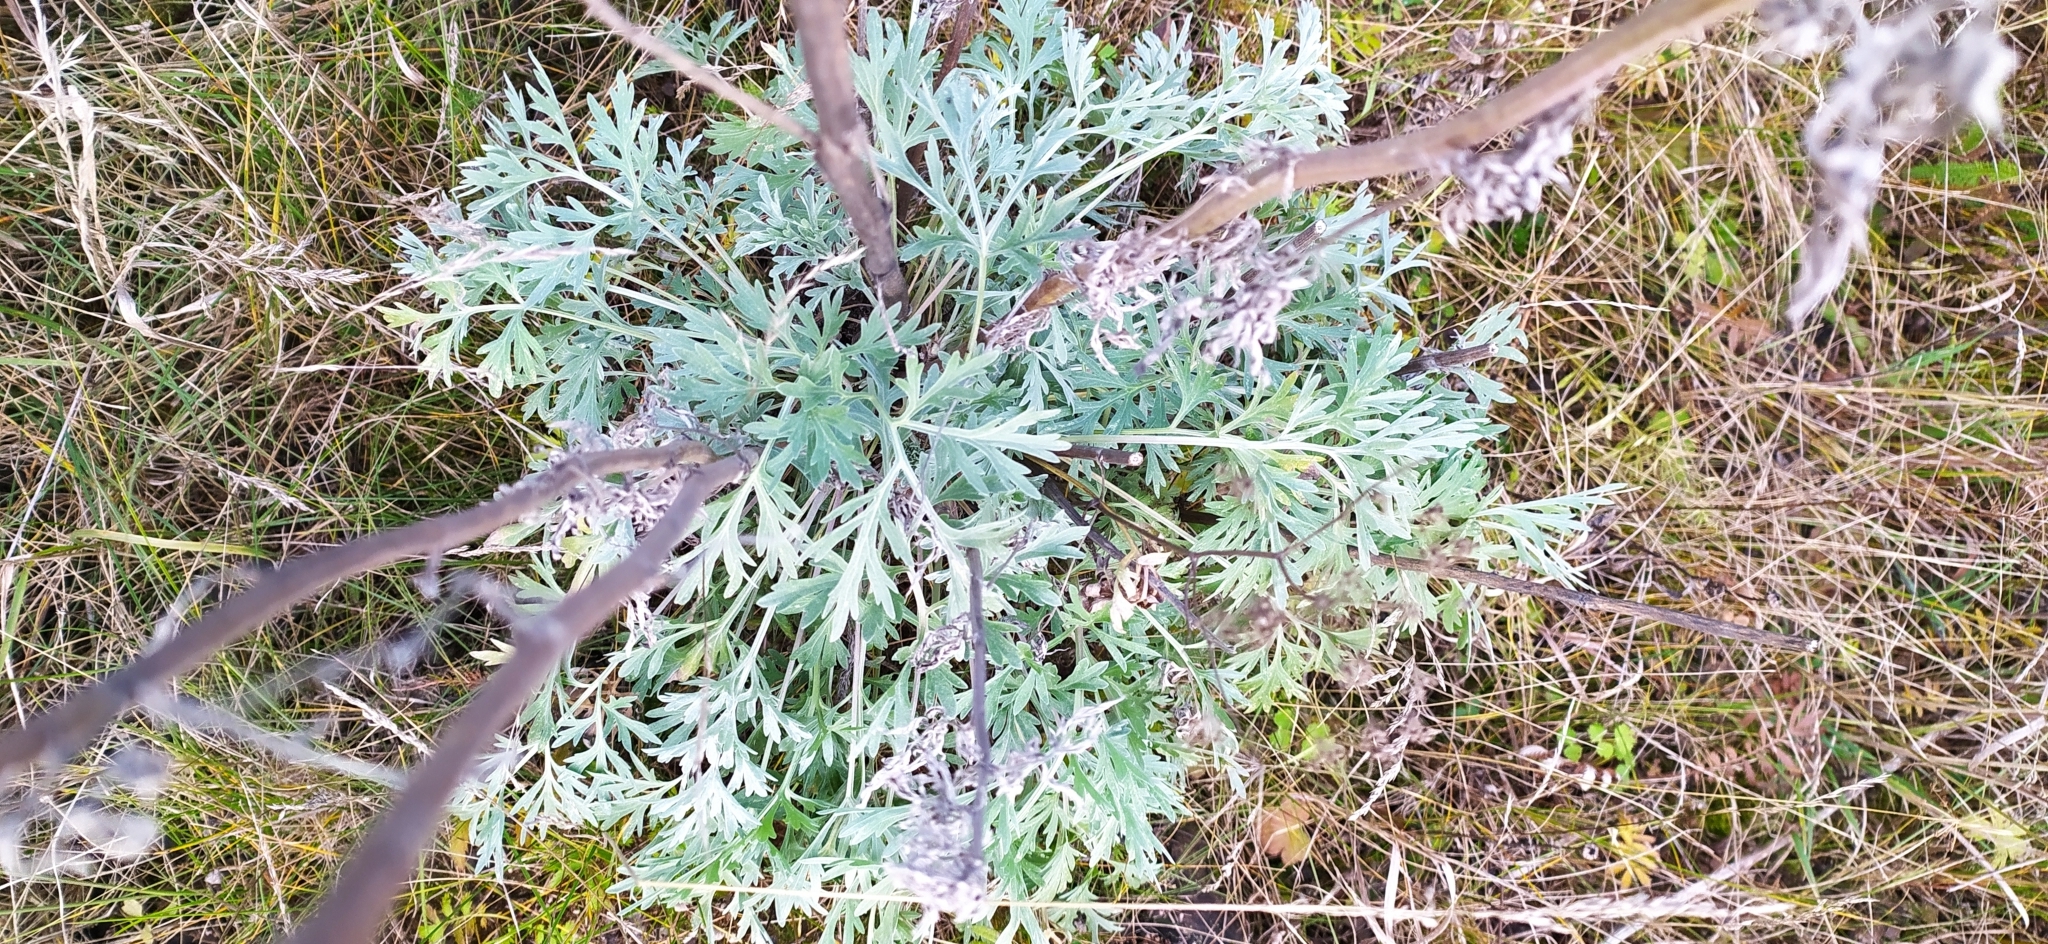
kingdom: Plantae
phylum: Tracheophyta
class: Magnoliopsida
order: Asterales
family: Asteraceae
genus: Artemisia
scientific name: Artemisia absinthium
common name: Wormwood
